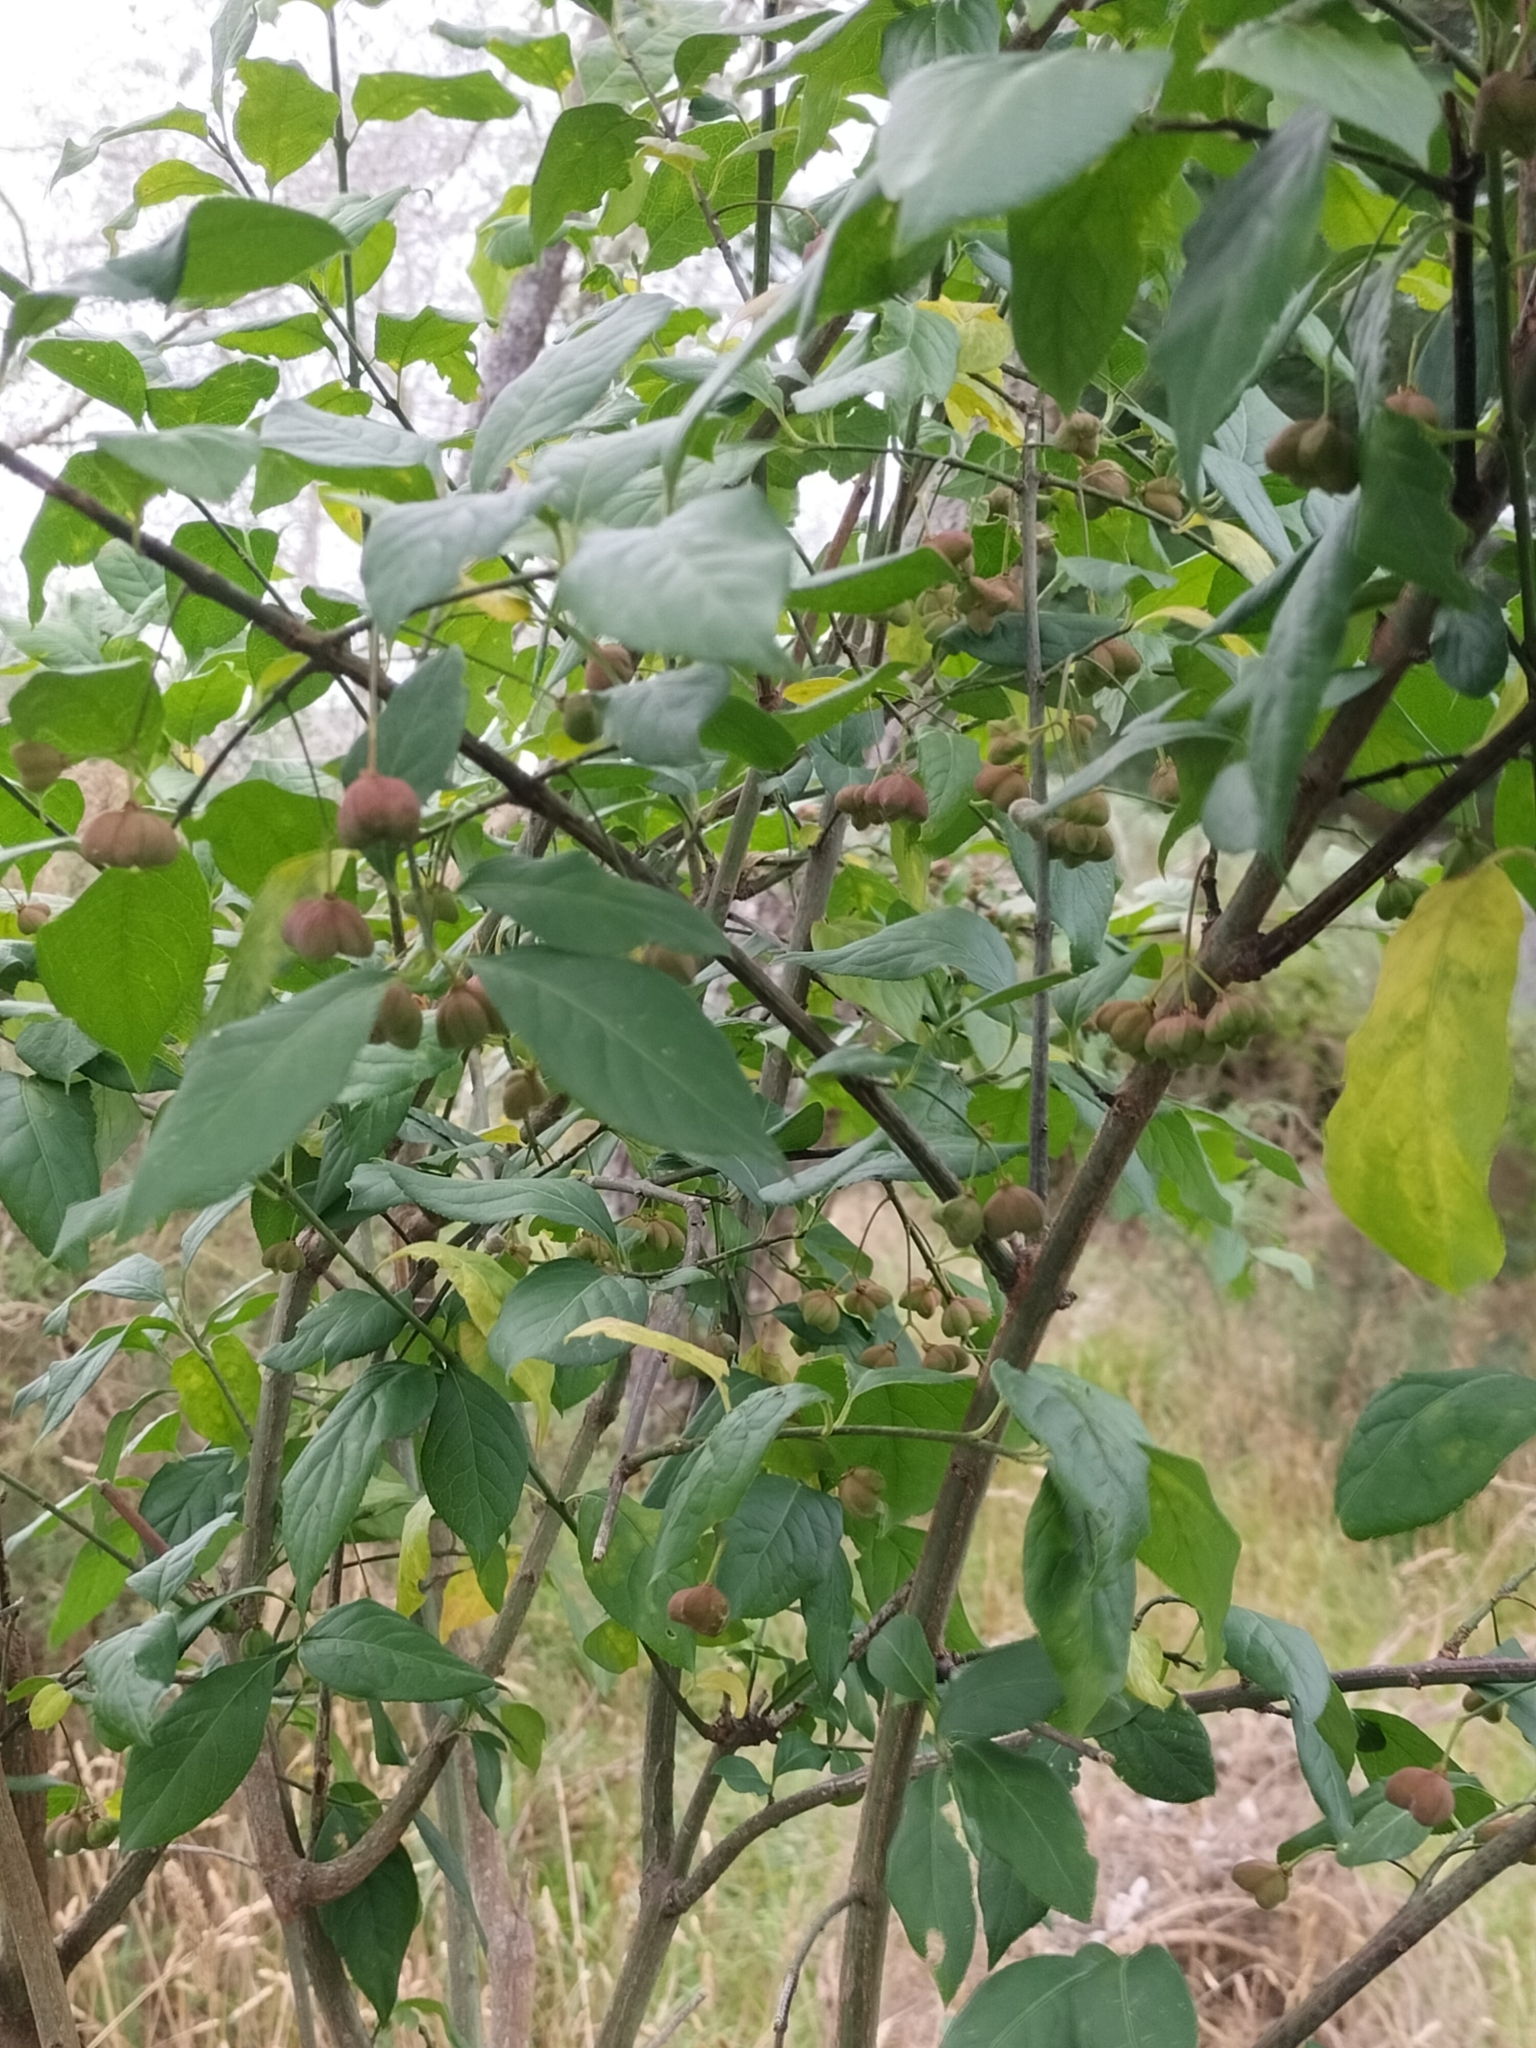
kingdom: Plantae
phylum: Tracheophyta
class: Magnoliopsida
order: Celastrales
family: Celastraceae
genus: Euonymus
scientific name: Euonymus europaeus
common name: Spindle
